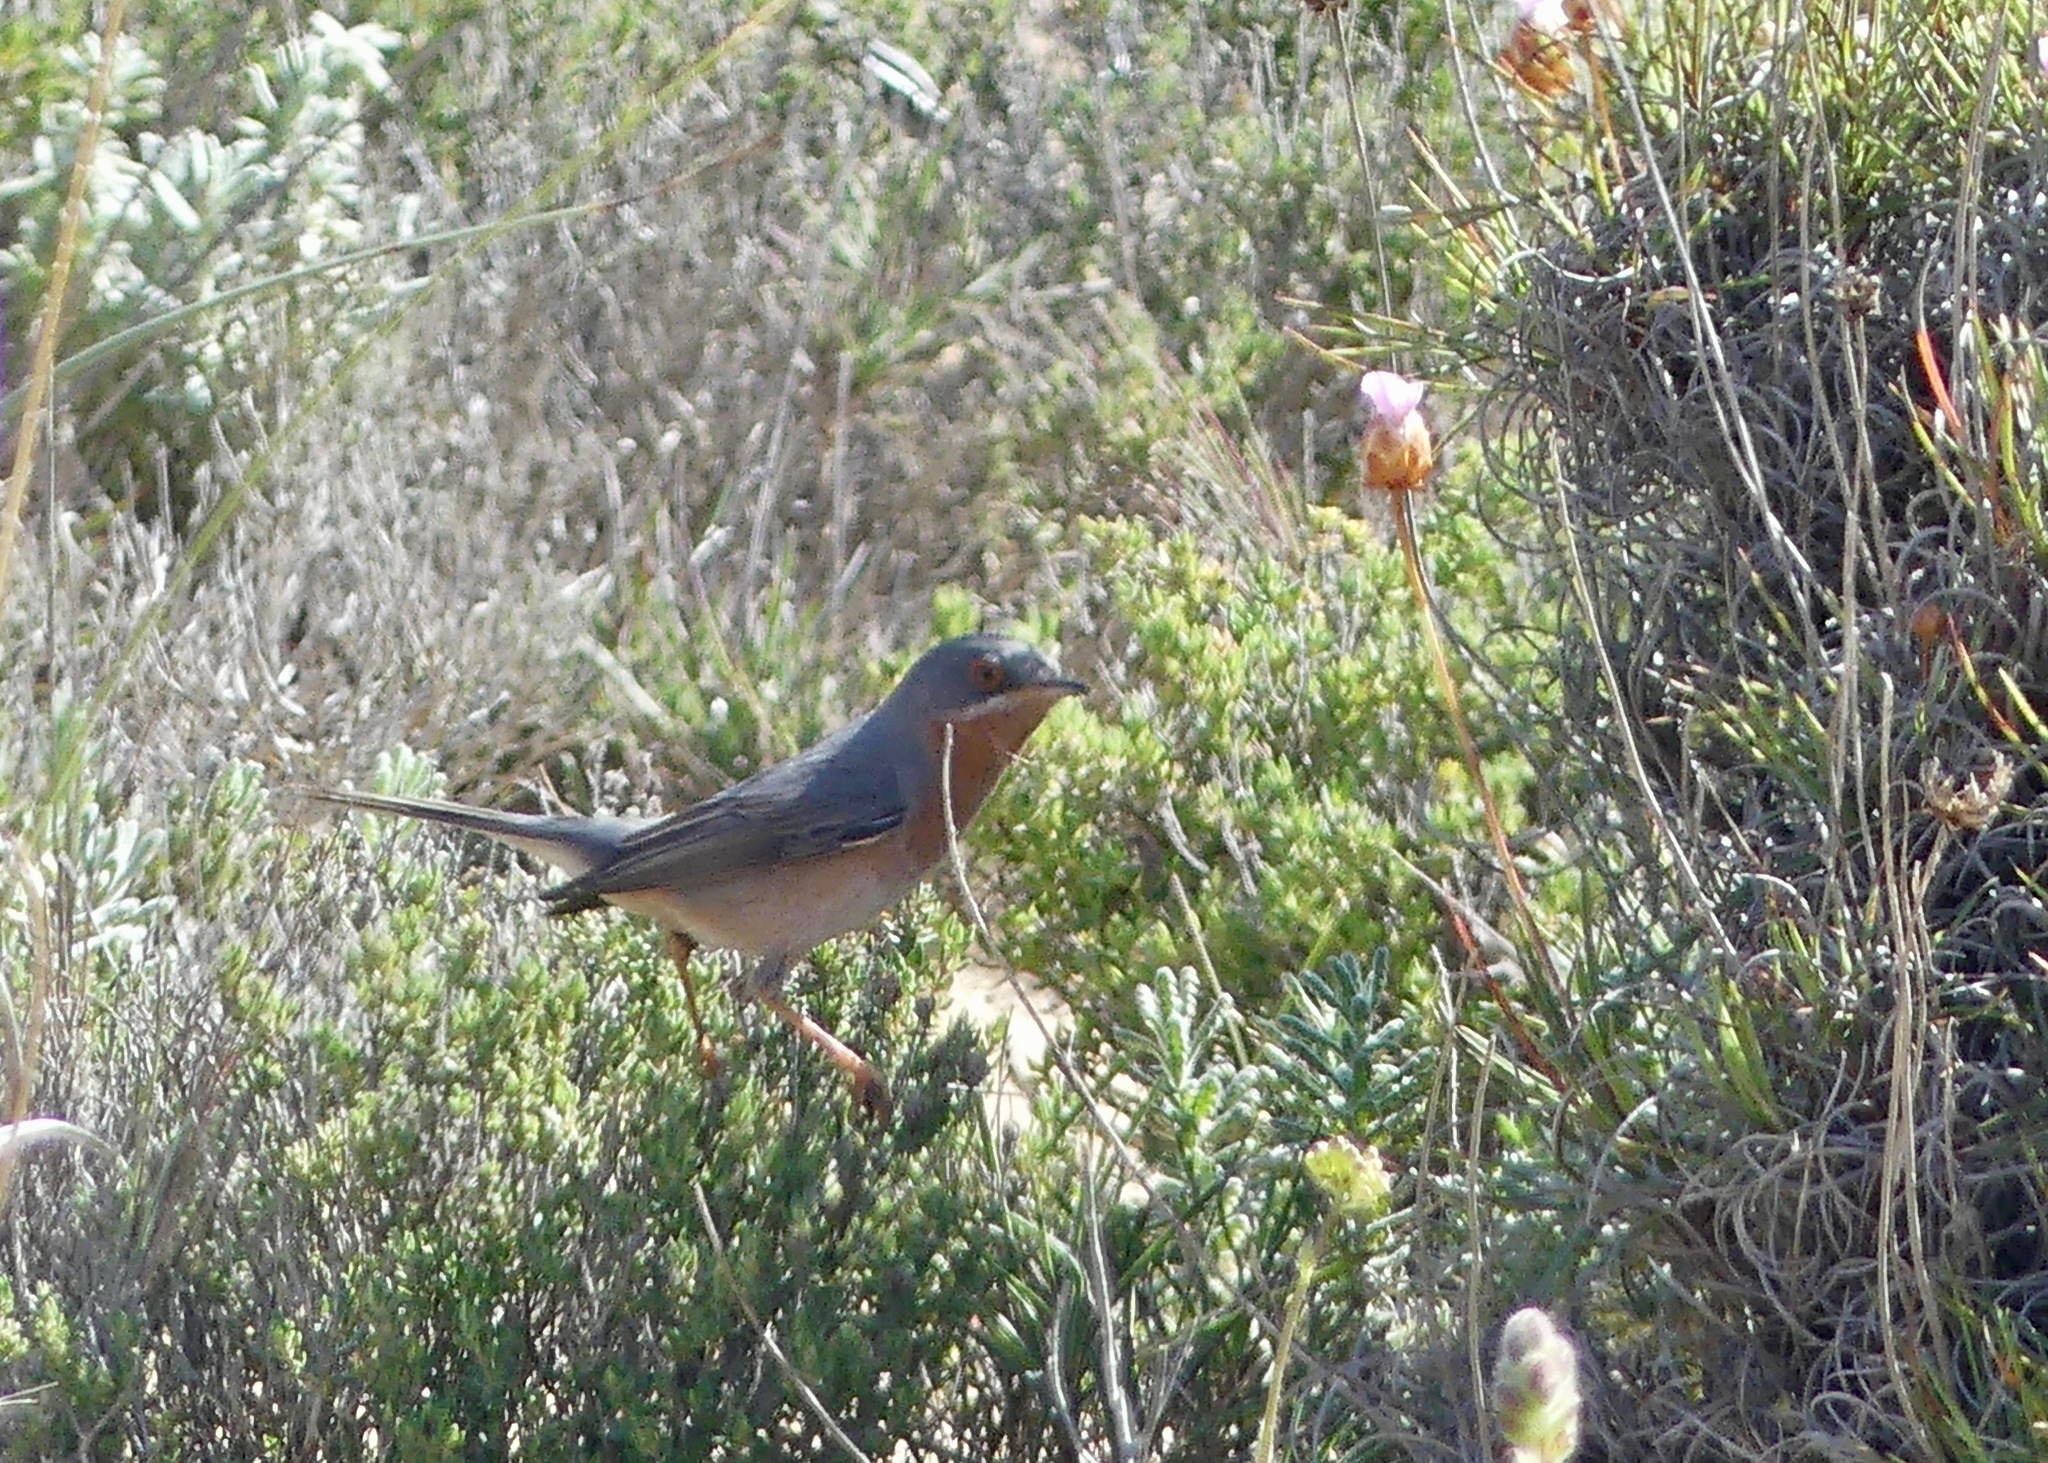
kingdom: Animalia
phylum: Chordata
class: Aves
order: Passeriformes
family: Sylviidae
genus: Curruca
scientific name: Curruca iberiae
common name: Western subalpine warbler
